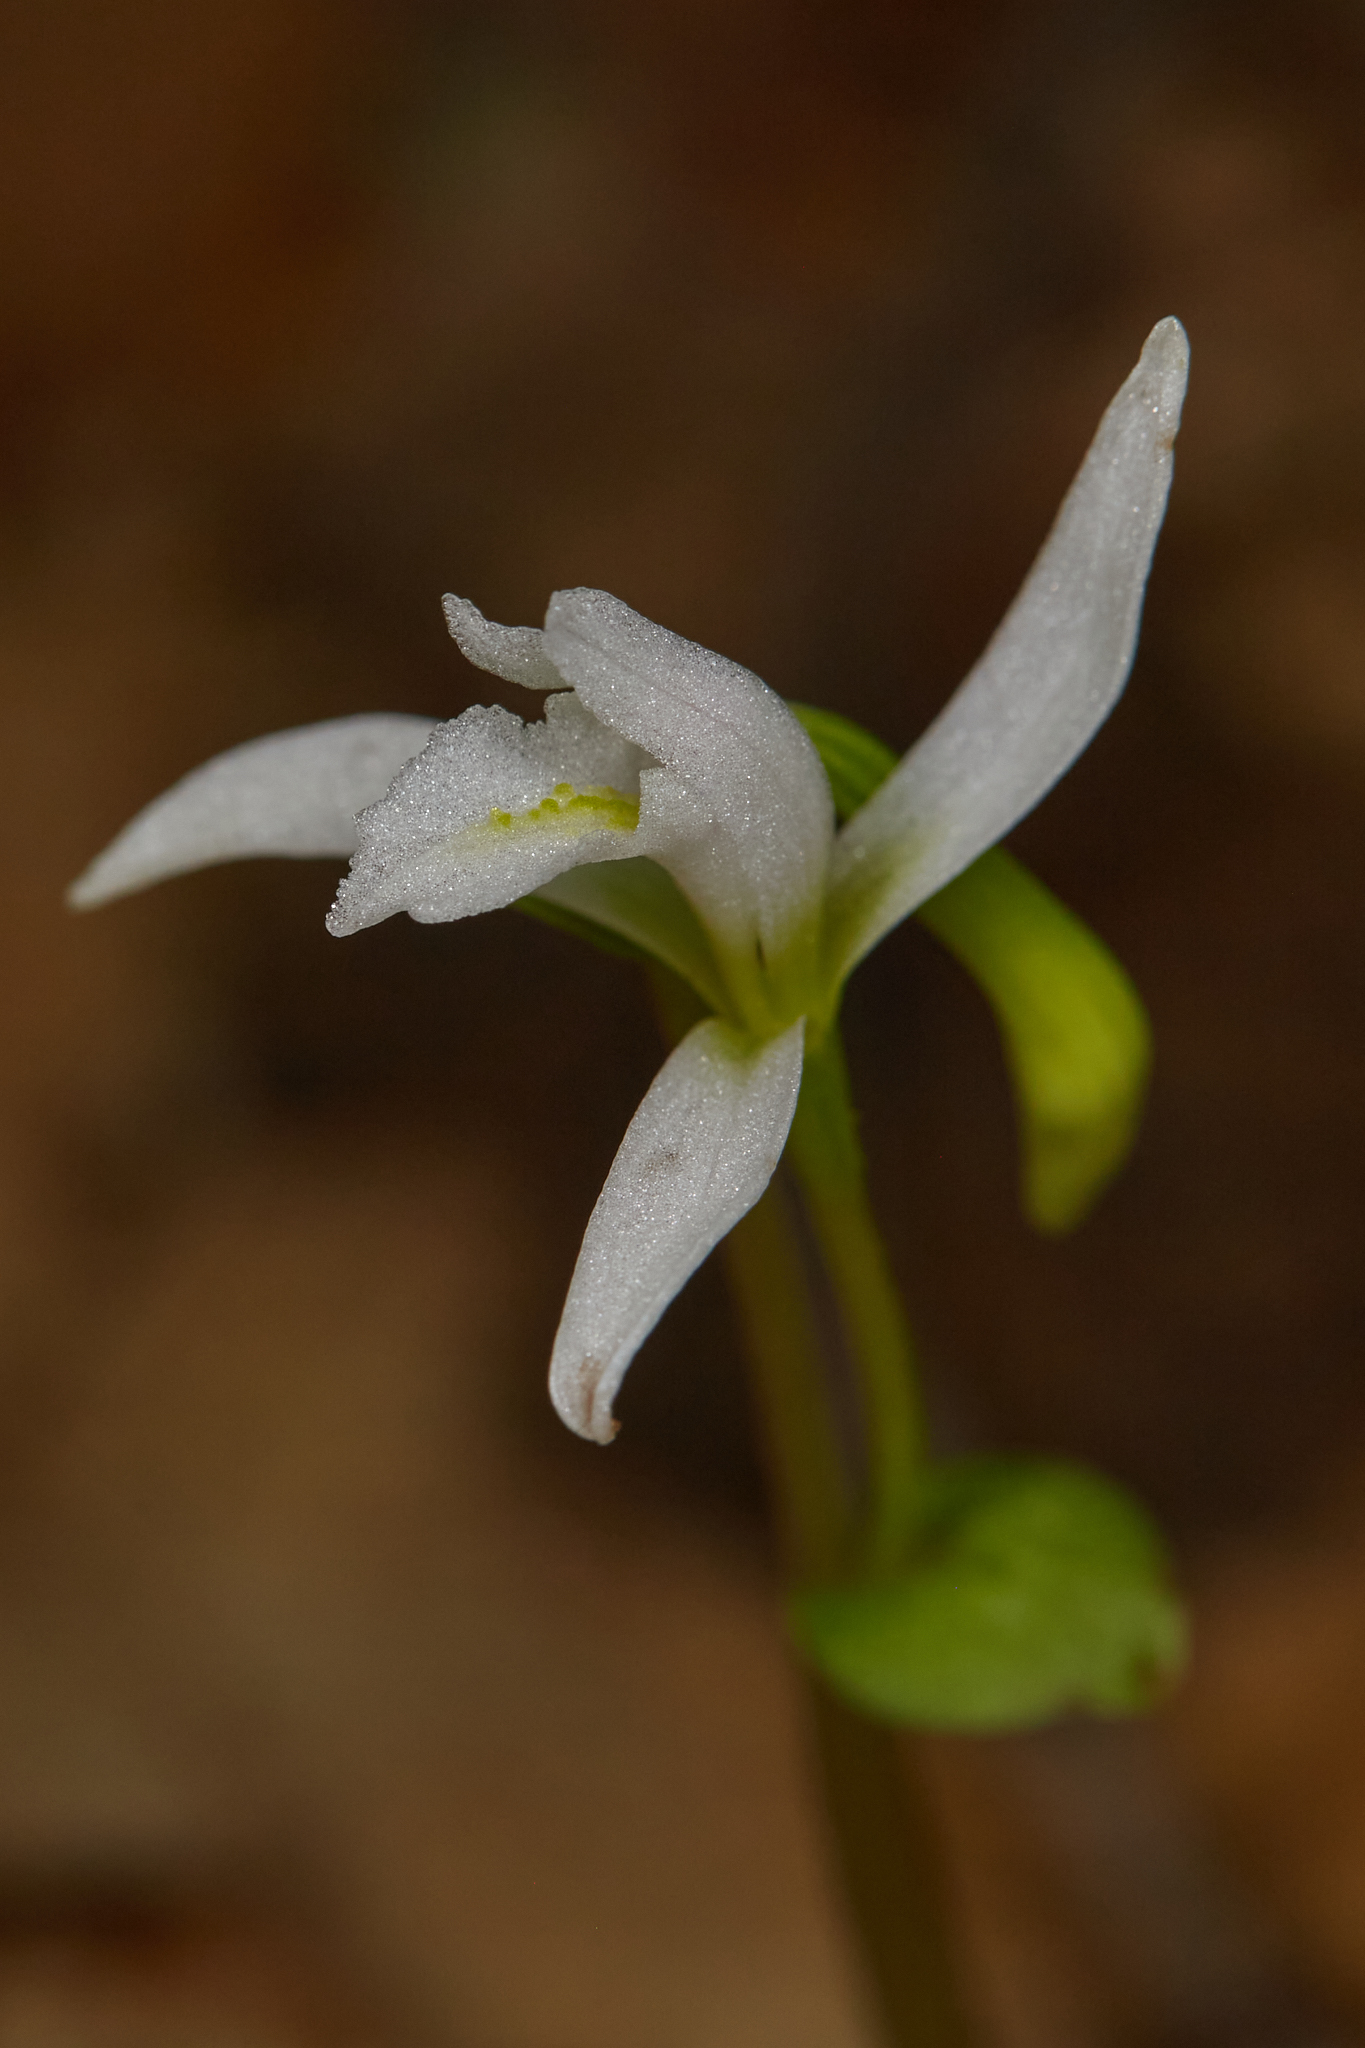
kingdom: Plantae
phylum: Tracheophyta
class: Liliopsida
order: Asparagales
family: Orchidaceae
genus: Triphora
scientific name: Triphora trianthophoros
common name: Three birds orchid
